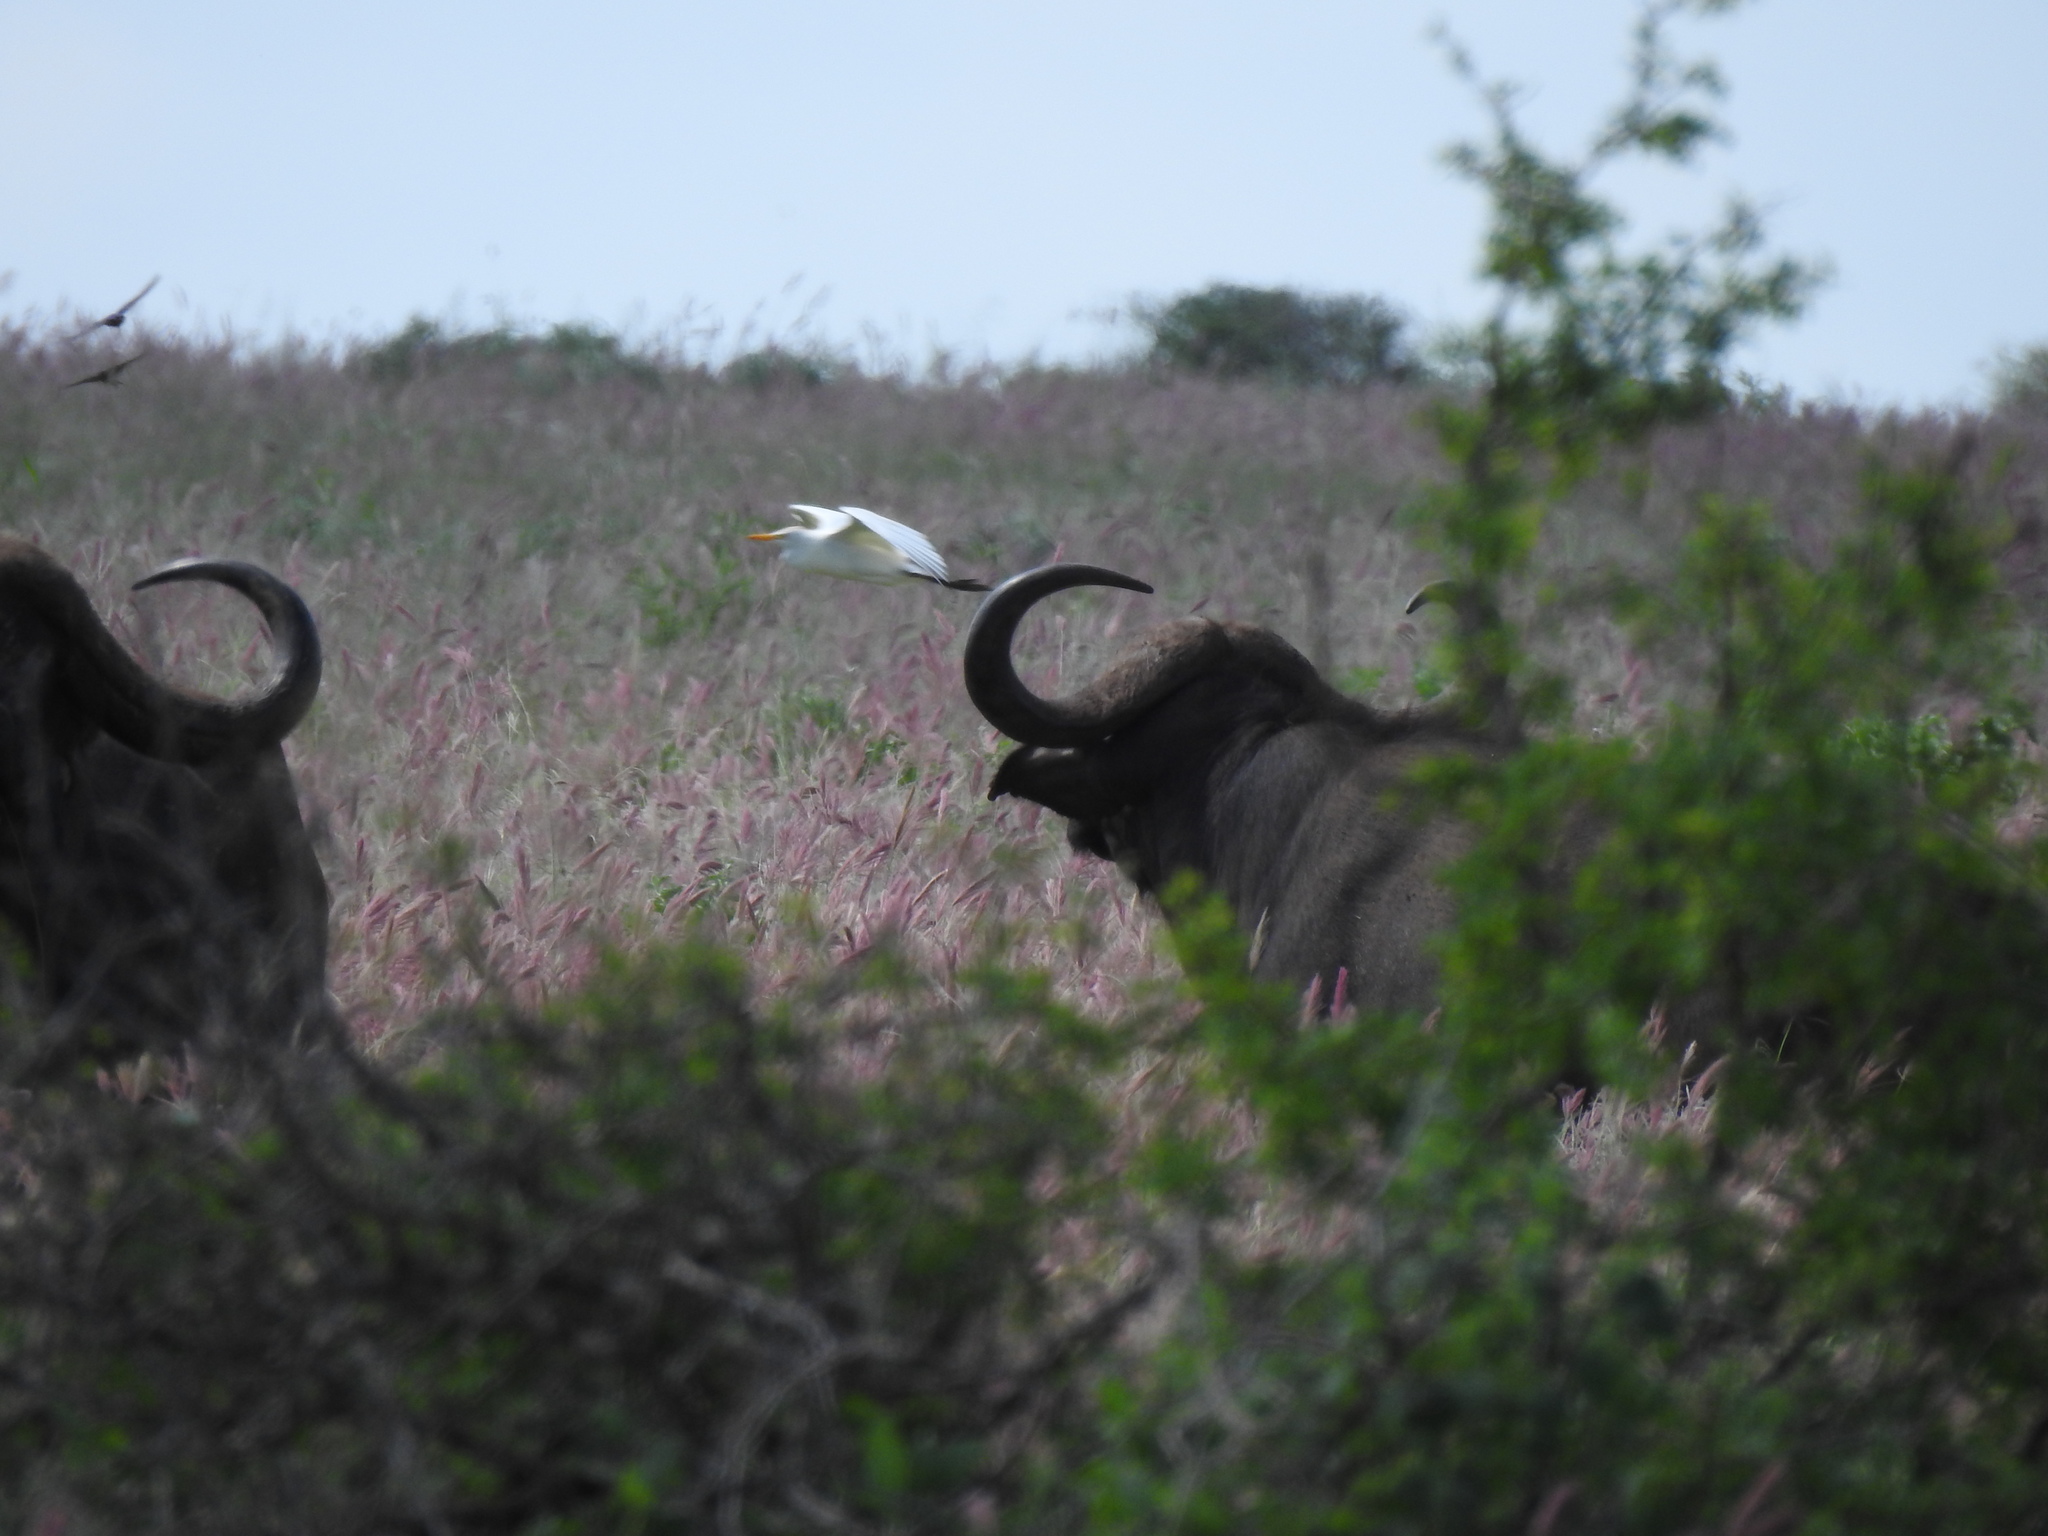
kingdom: Animalia
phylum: Chordata
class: Mammalia
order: Artiodactyla
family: Bovidae
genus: Syncerus
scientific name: Syncerus caffer
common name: African buffalo
